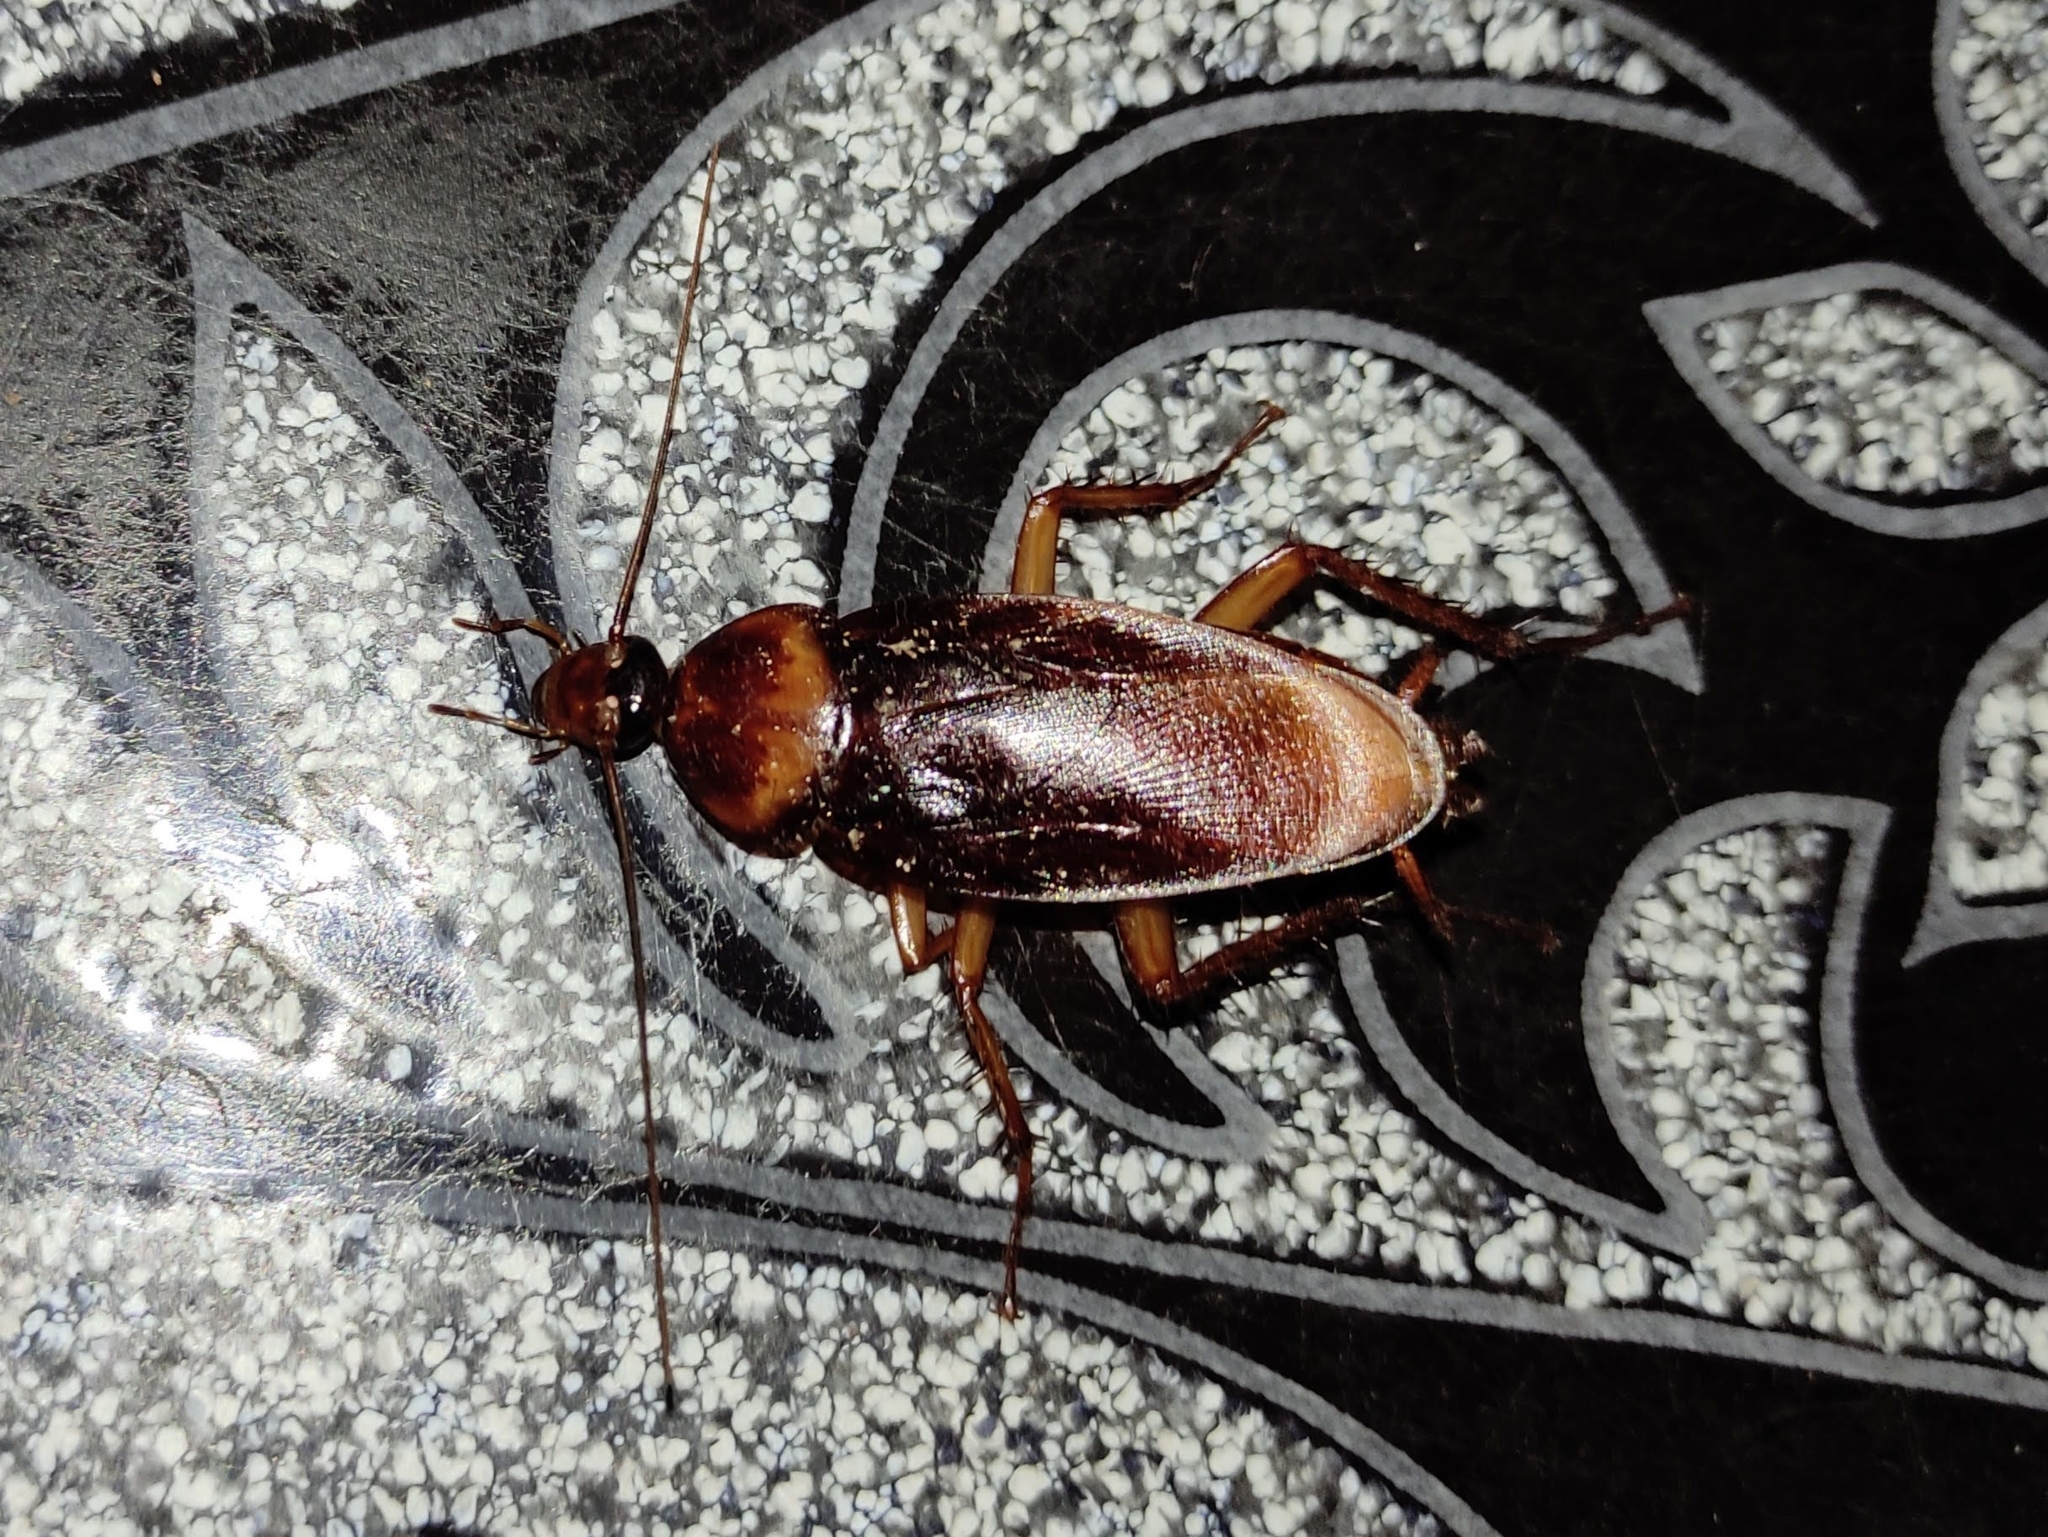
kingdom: Animalia
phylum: Arthropoda
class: Insecta
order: Blattodea
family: Blattidae
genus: Periplaneta
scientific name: Periplaneta americana
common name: American cockroach
